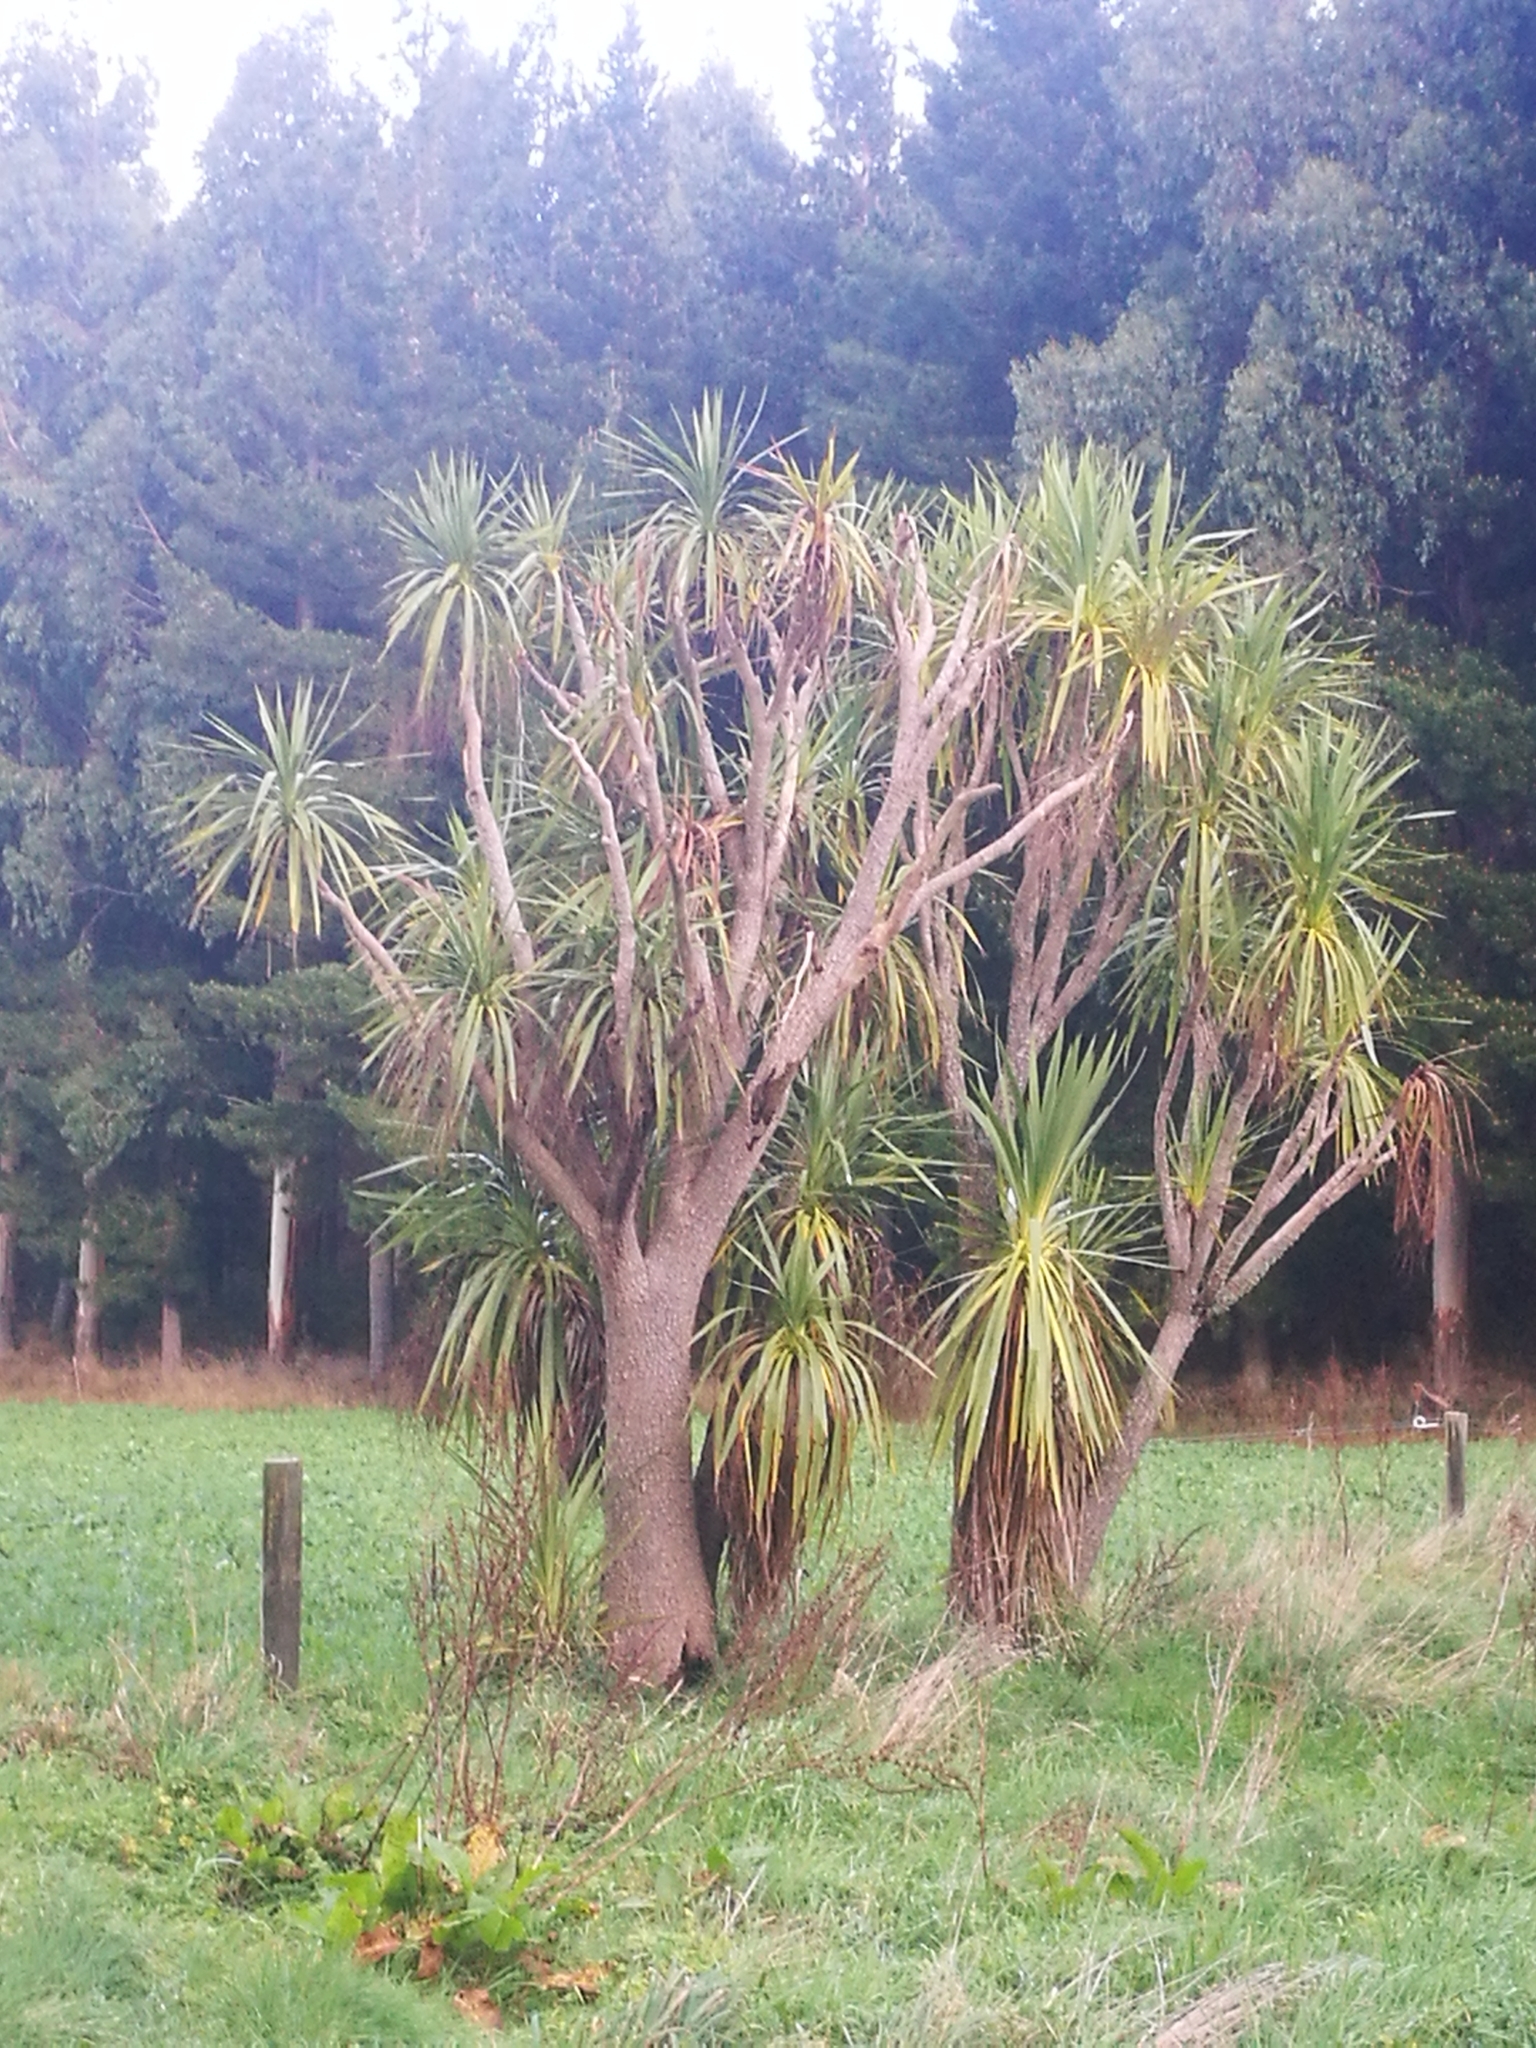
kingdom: Plantae
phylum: Tracheophyta
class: Liliopsida
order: Asparagales
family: Asparagaceae
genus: Cordyline
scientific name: Cordyline australis
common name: Cabbage-palm
